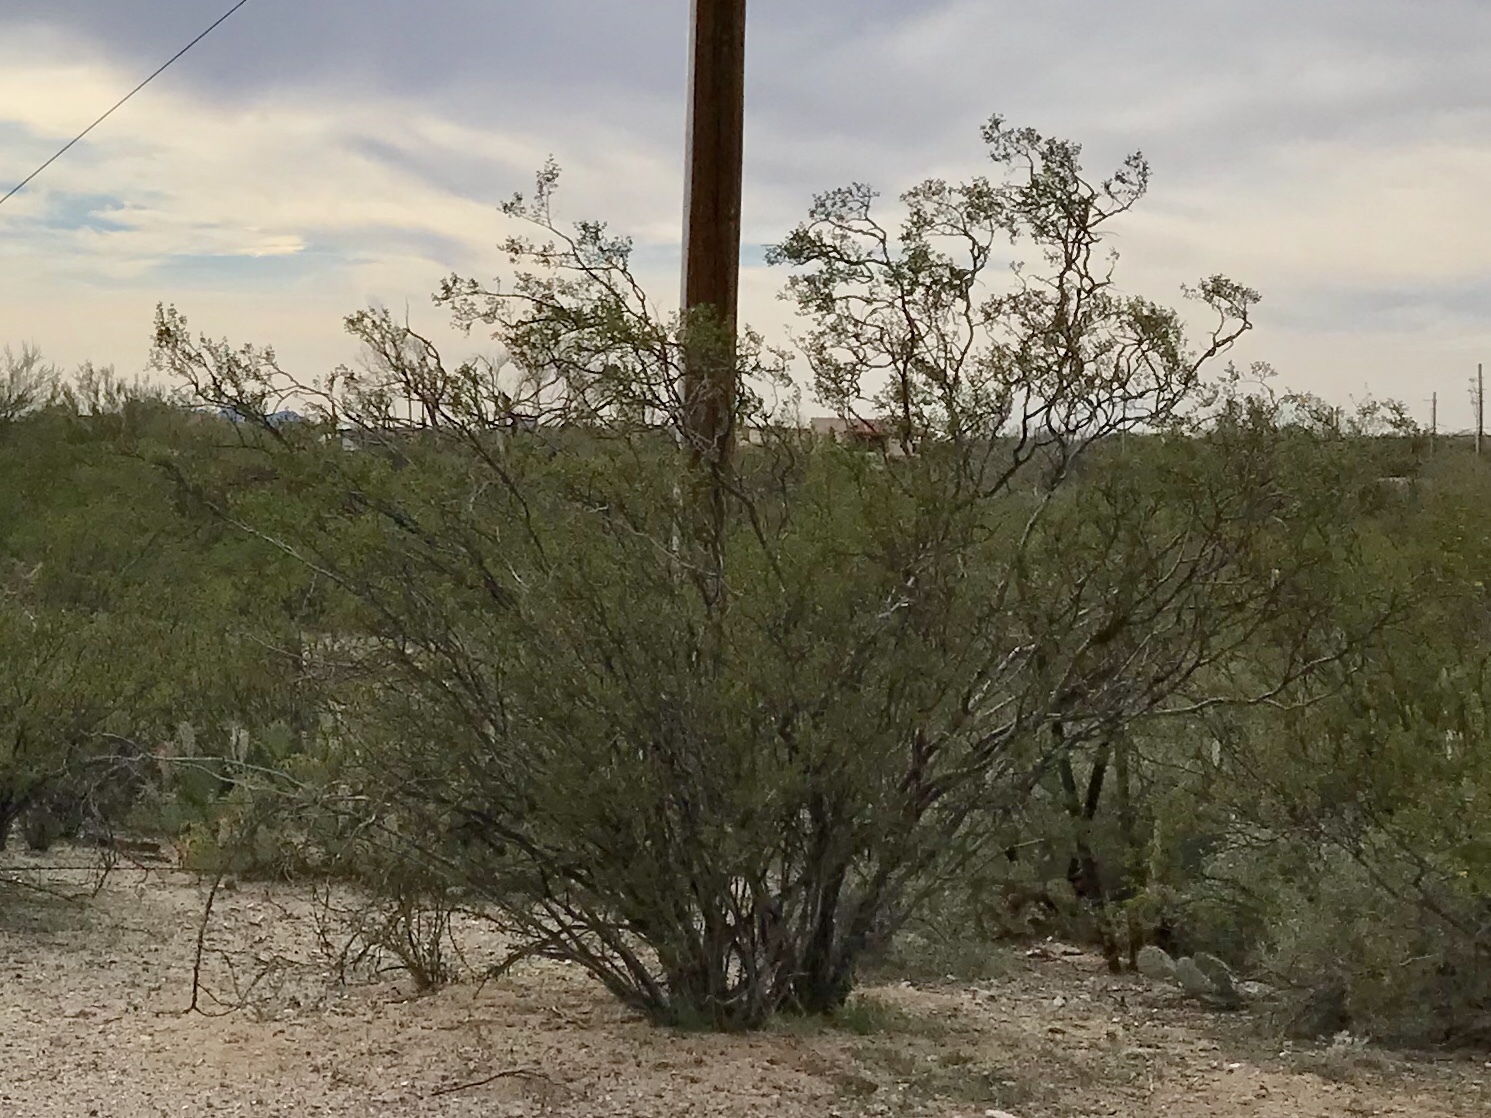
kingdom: Plantae
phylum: Tracheophyta
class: Magnoliopsida
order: Zygophyllales
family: Zygophyllaceae
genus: Larrea
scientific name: Larrea tridentata
